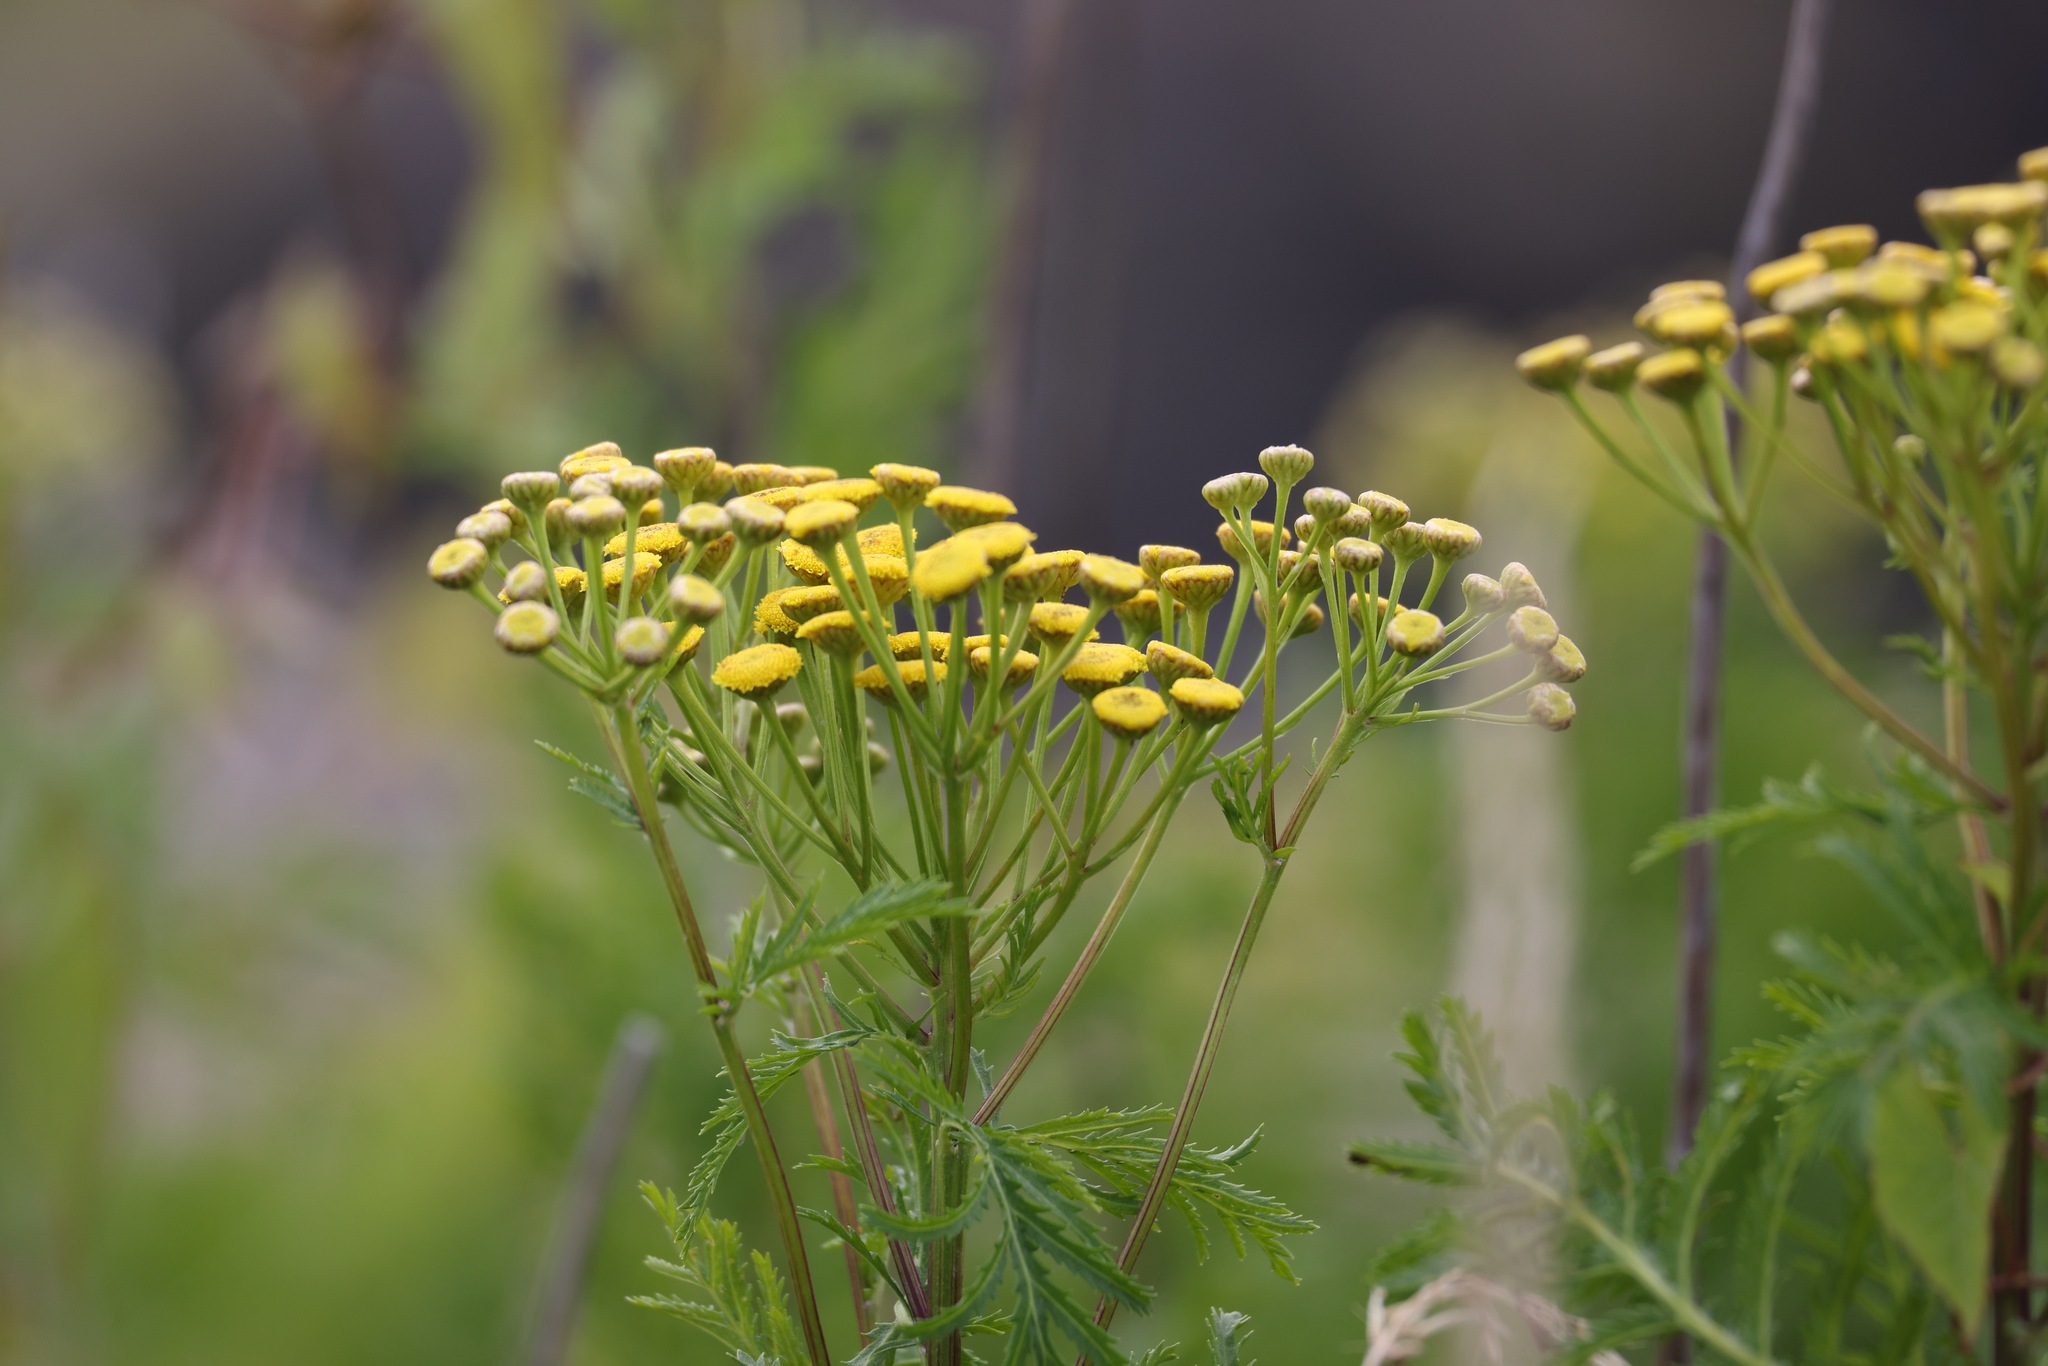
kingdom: Plantae
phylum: Tracheophyta
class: Magnoliopsida
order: Asterales
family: Asteraceae
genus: Tanacetum
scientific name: Tanacetum vulgare
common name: Common tansy
